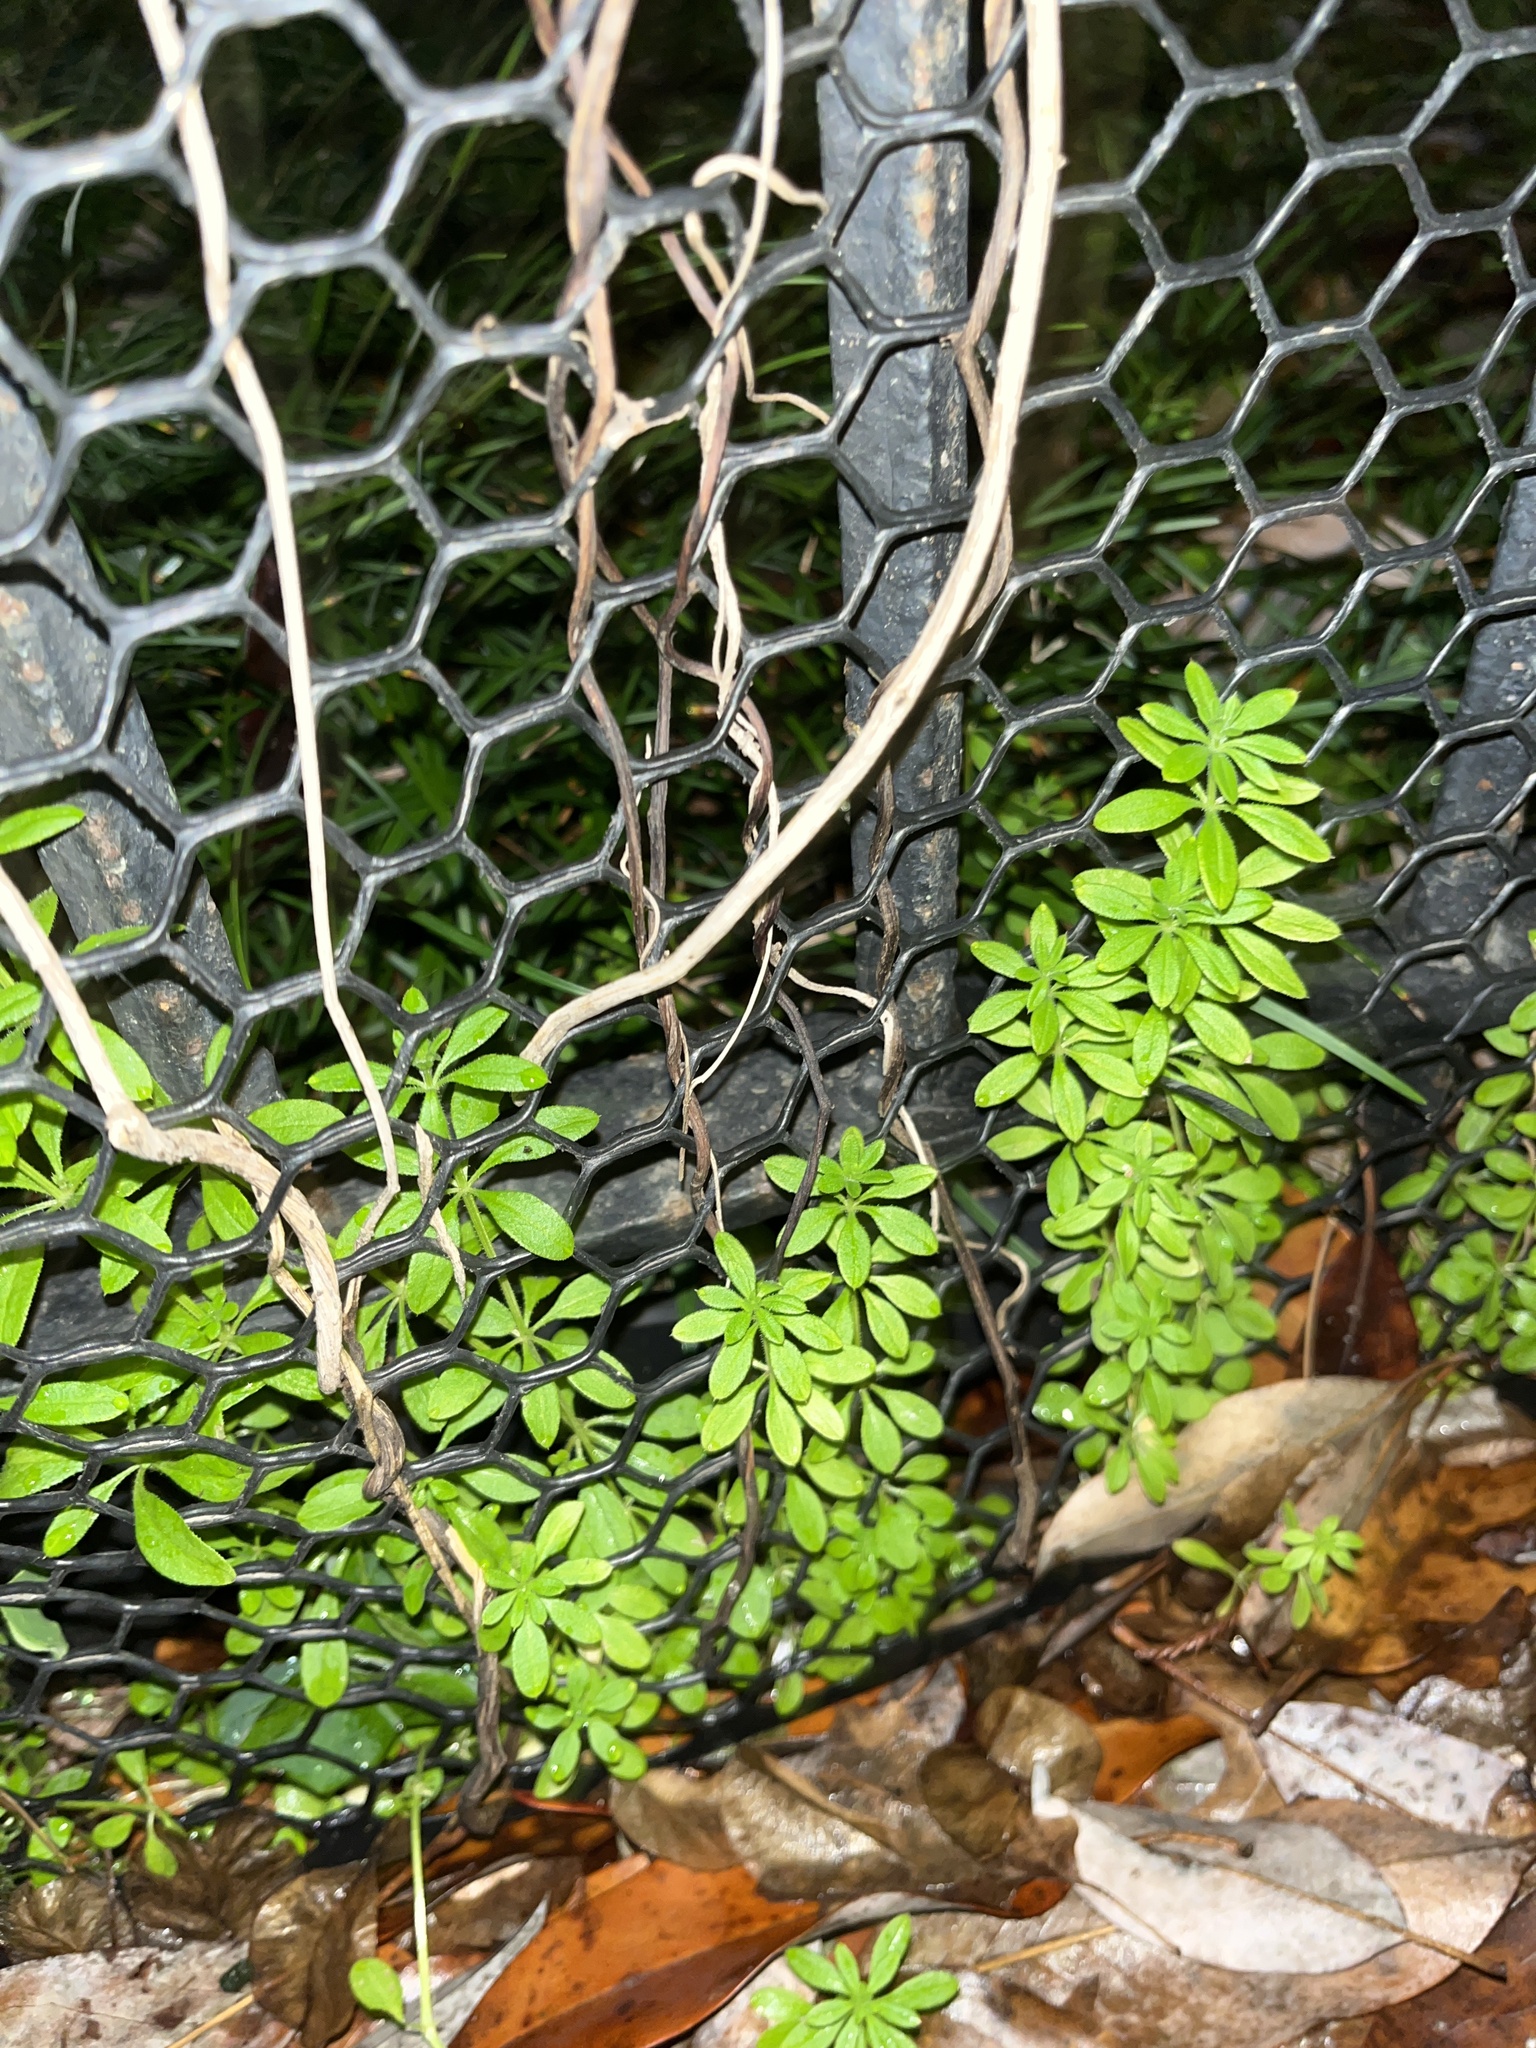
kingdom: Plantae
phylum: Tracheophyta
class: Magnoliopsida
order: Gentianales
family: Rubiaceae
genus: Galium
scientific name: Galium aparine
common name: Cleavers
